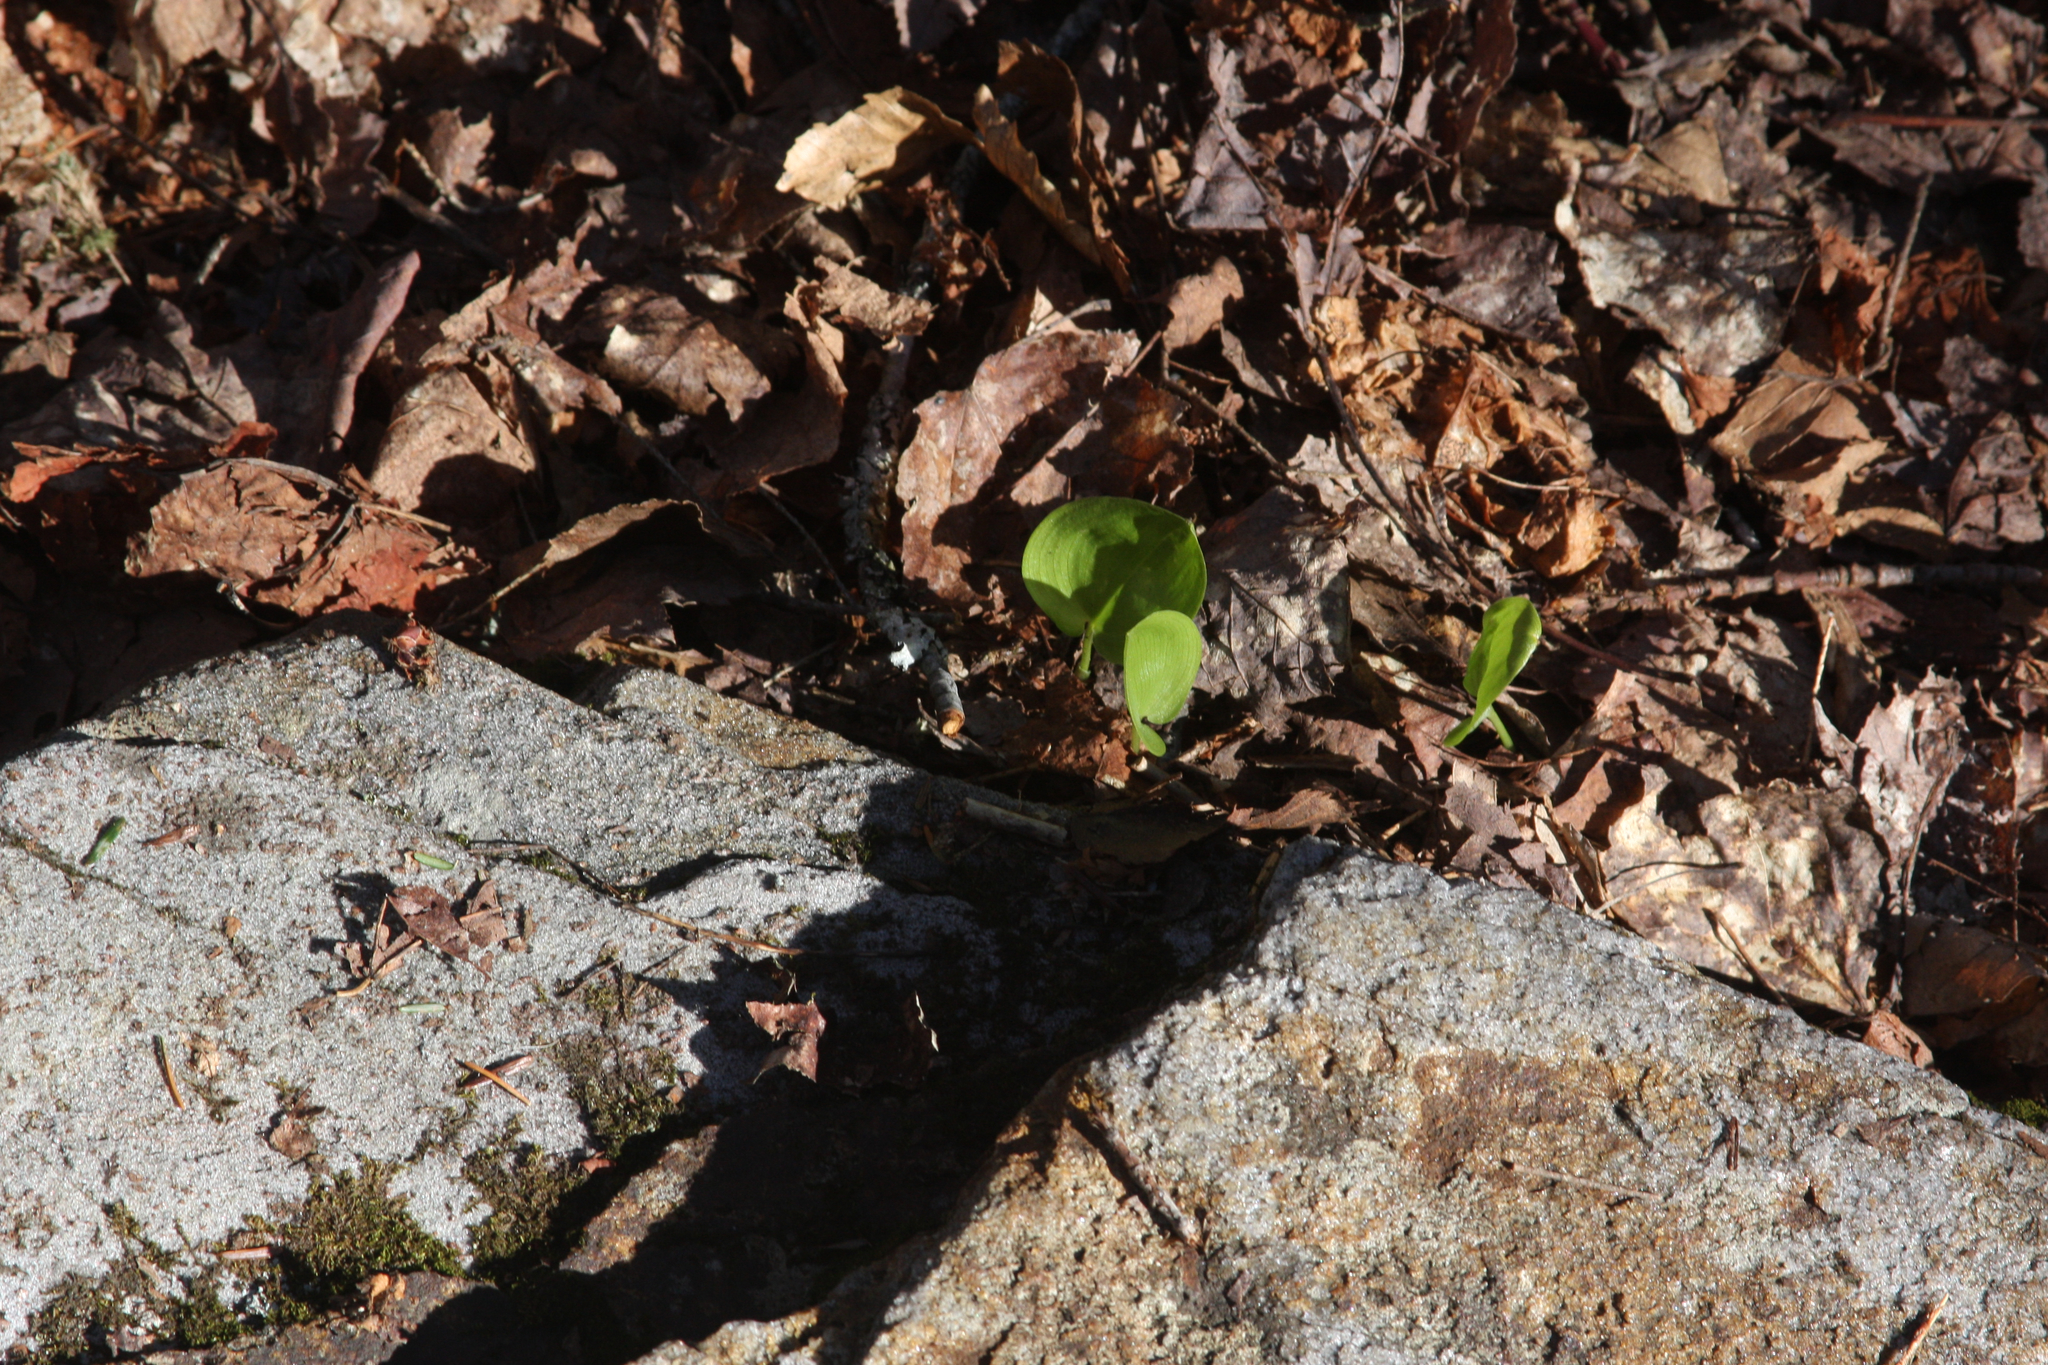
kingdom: Plantae
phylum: Tracheophyta
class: Liliopsida
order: Asparagales
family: Asparagaceae
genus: Maianthemum
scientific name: Maianthemum canadense
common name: False lily-of-the-valley
